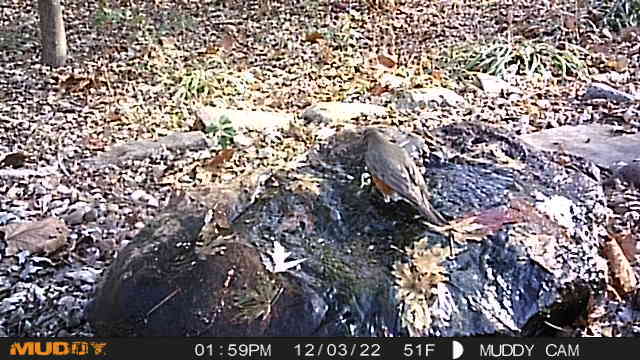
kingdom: Animalia
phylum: Chordata
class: Aves
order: Passeriformes
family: Turdidae
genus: Turdus
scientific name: Turdus migratorius
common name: American robin
